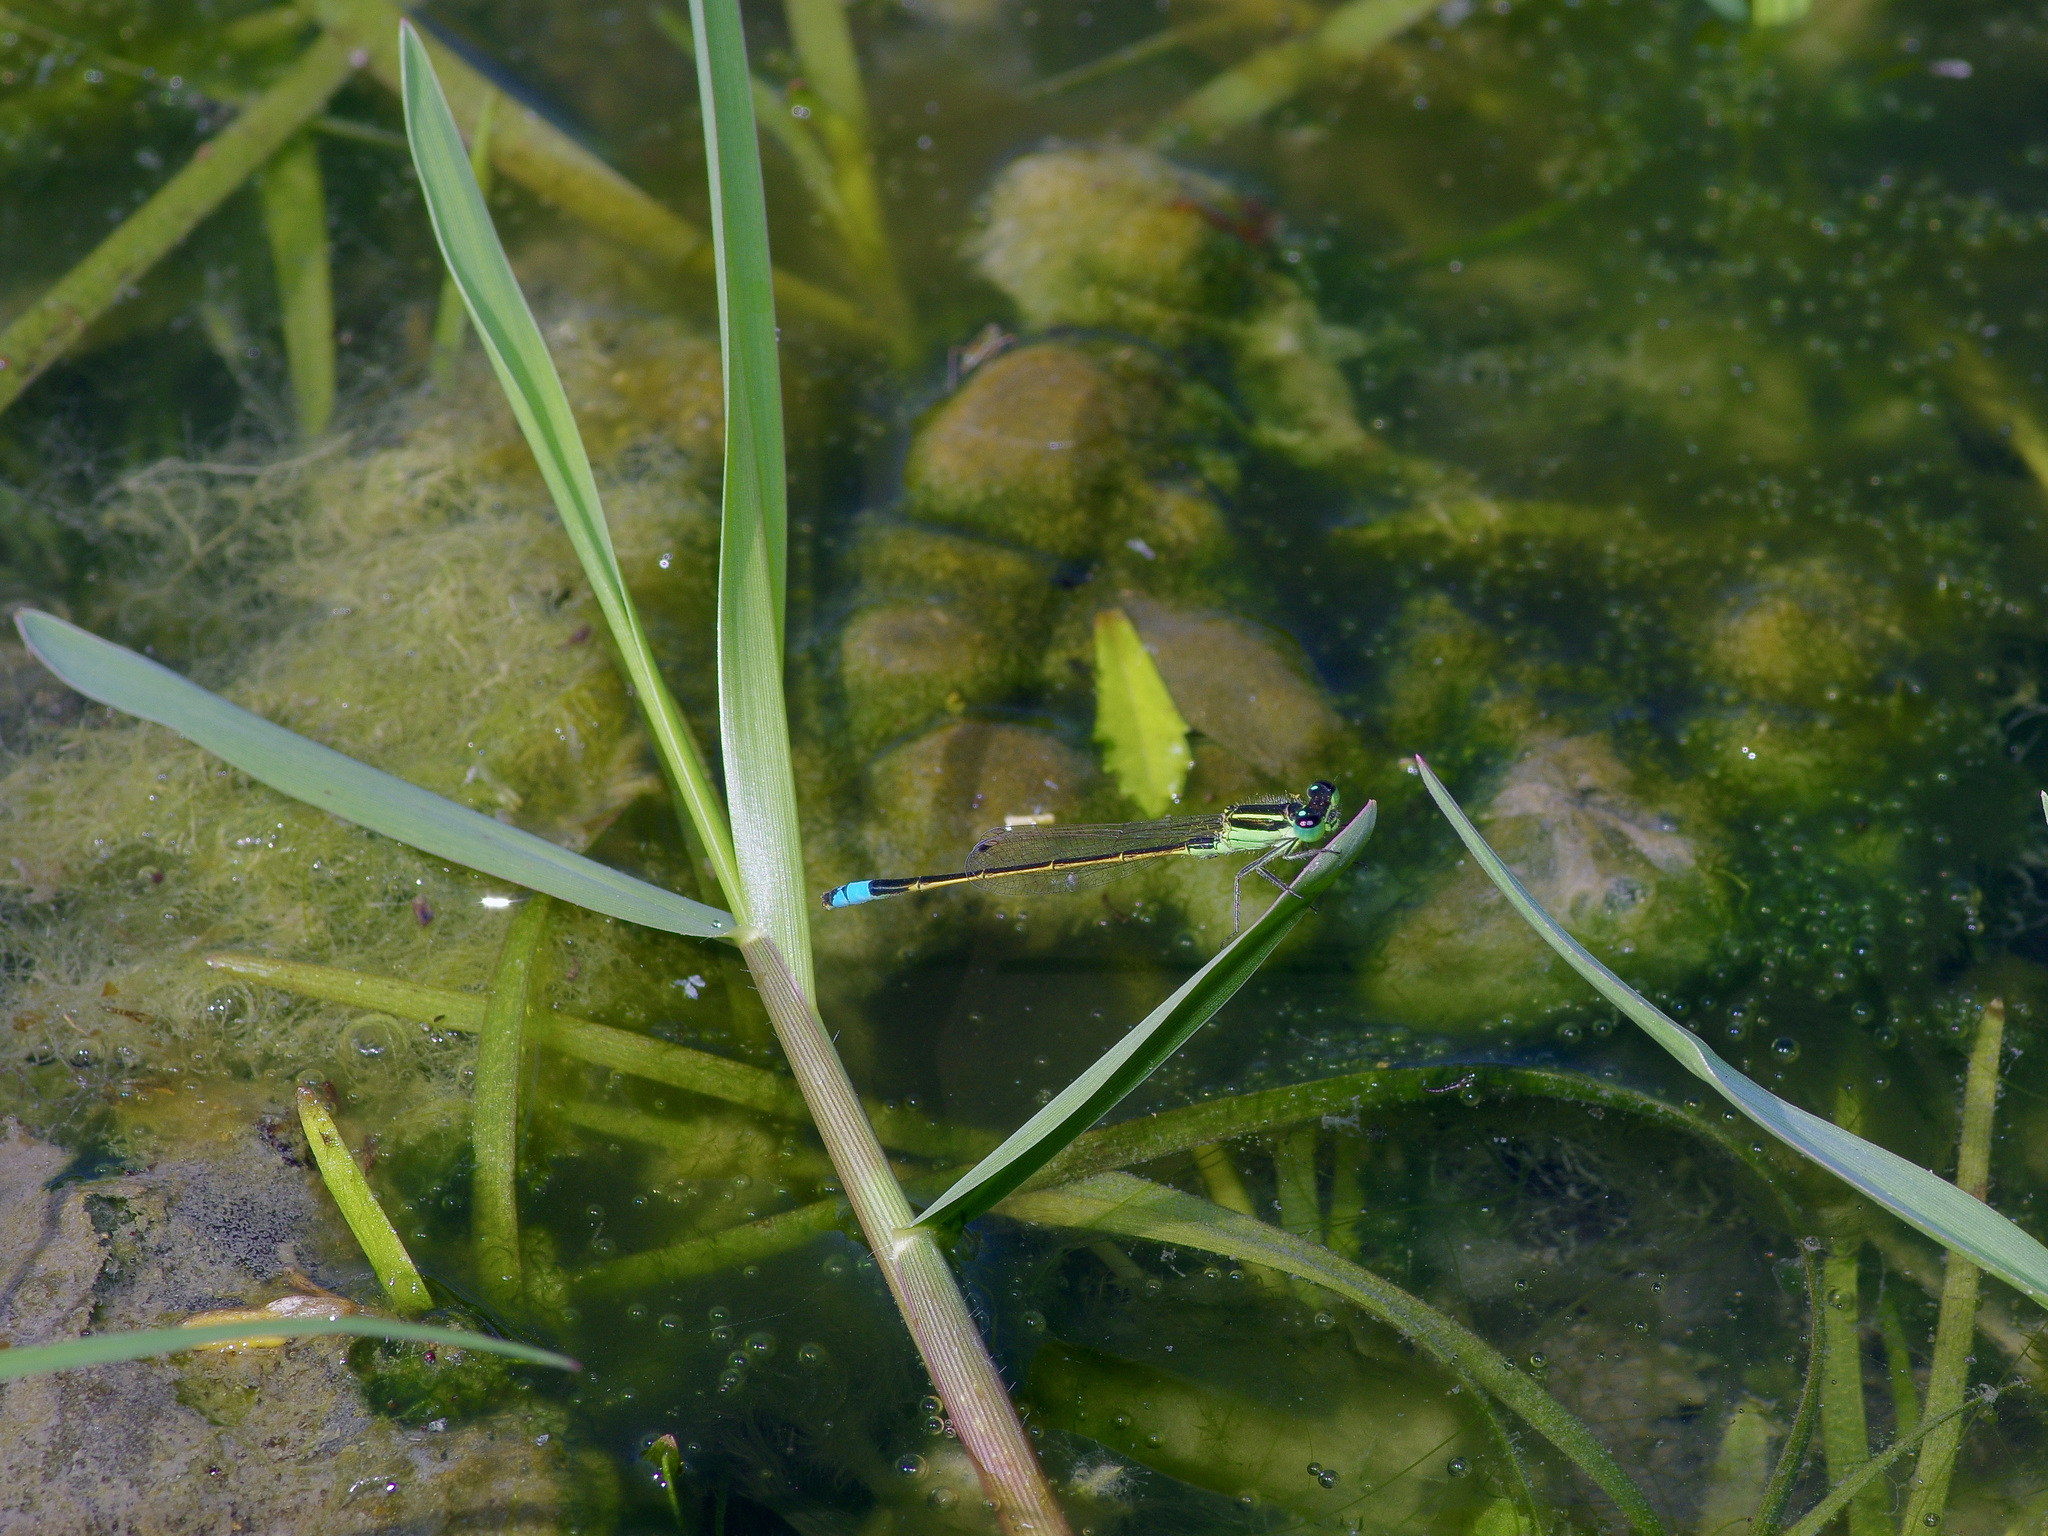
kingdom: Animalia
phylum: Arthropoda
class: Insecta
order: Odonata
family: Coenagrionidae
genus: Ischnura
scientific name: Ischnura ramburii
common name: Rambur's forktail
